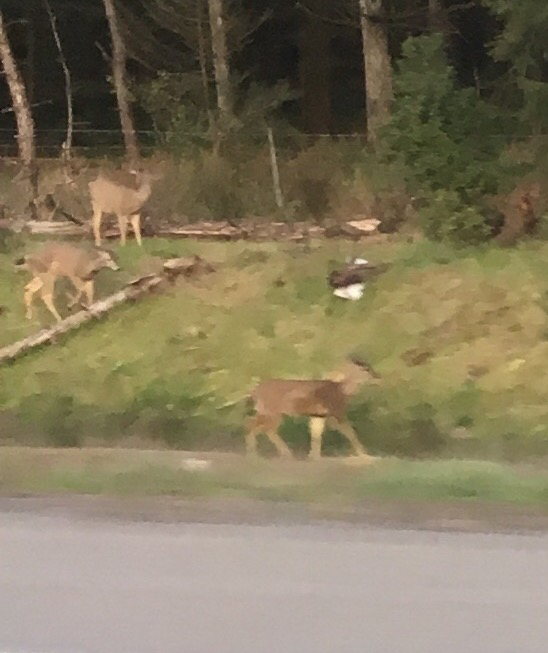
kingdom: Animalia
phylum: Chordata
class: Mammalia
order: Artiodactyla
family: Cervidae
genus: Odocoileus
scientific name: Odocoileus hemionus
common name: Mule deer
